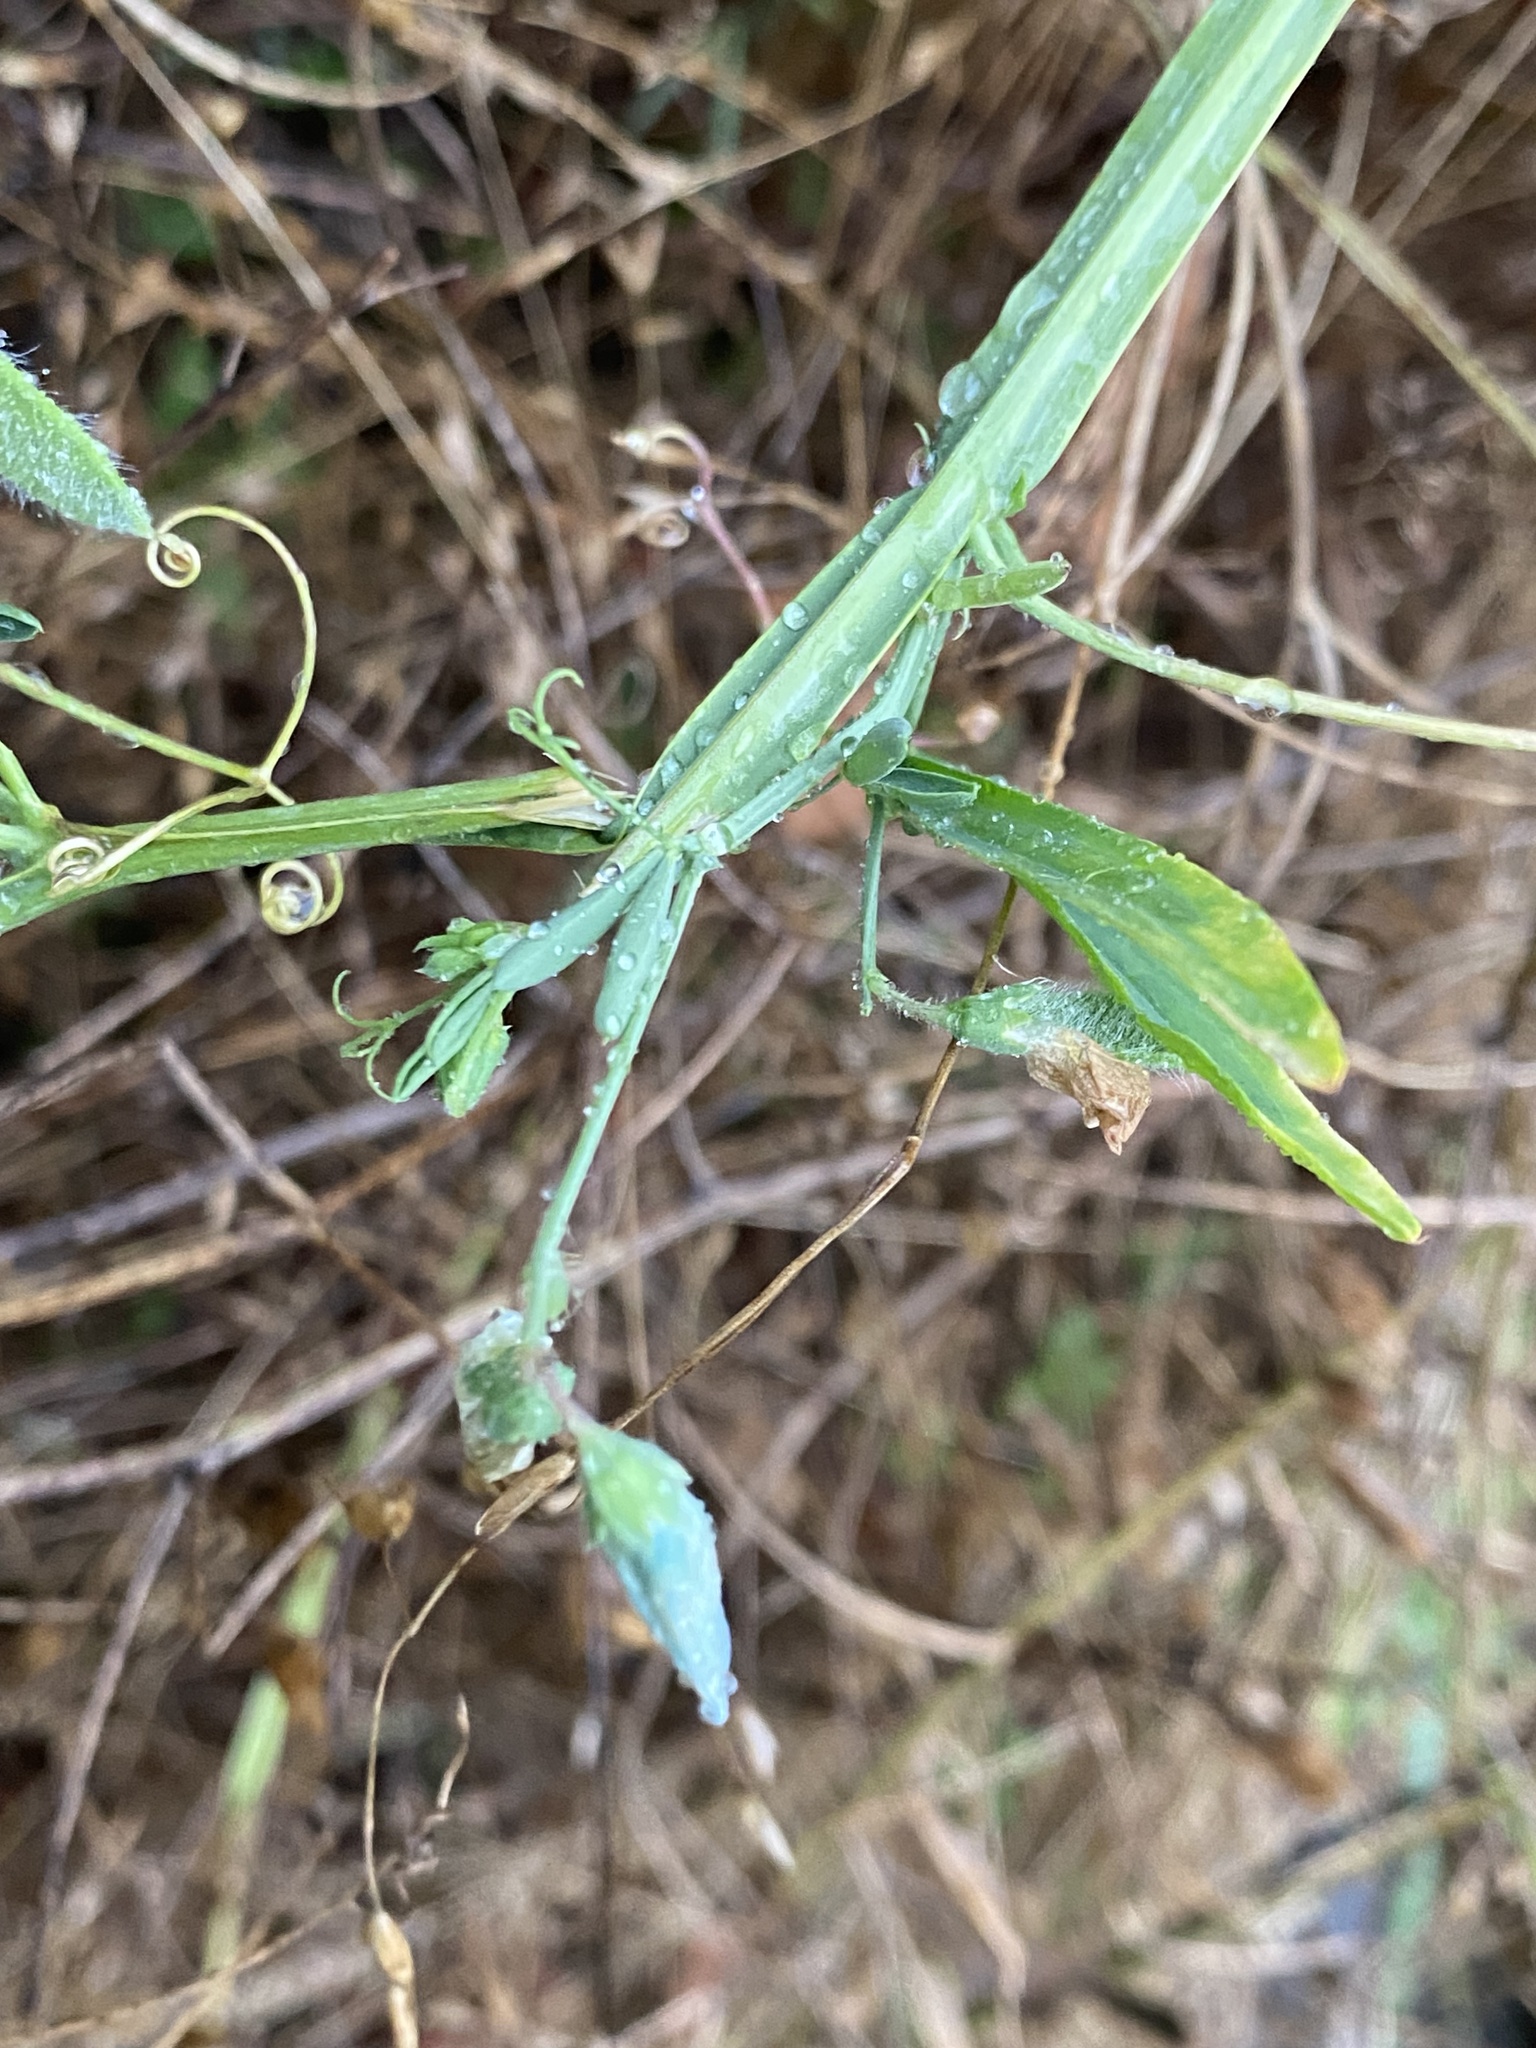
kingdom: Plantae
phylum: Tracheophyta
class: Magnoliopsida
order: Fabales
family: Fabaceae
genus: Lathyrus
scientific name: Lathyrus hirsutus
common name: Hairy vetchling
